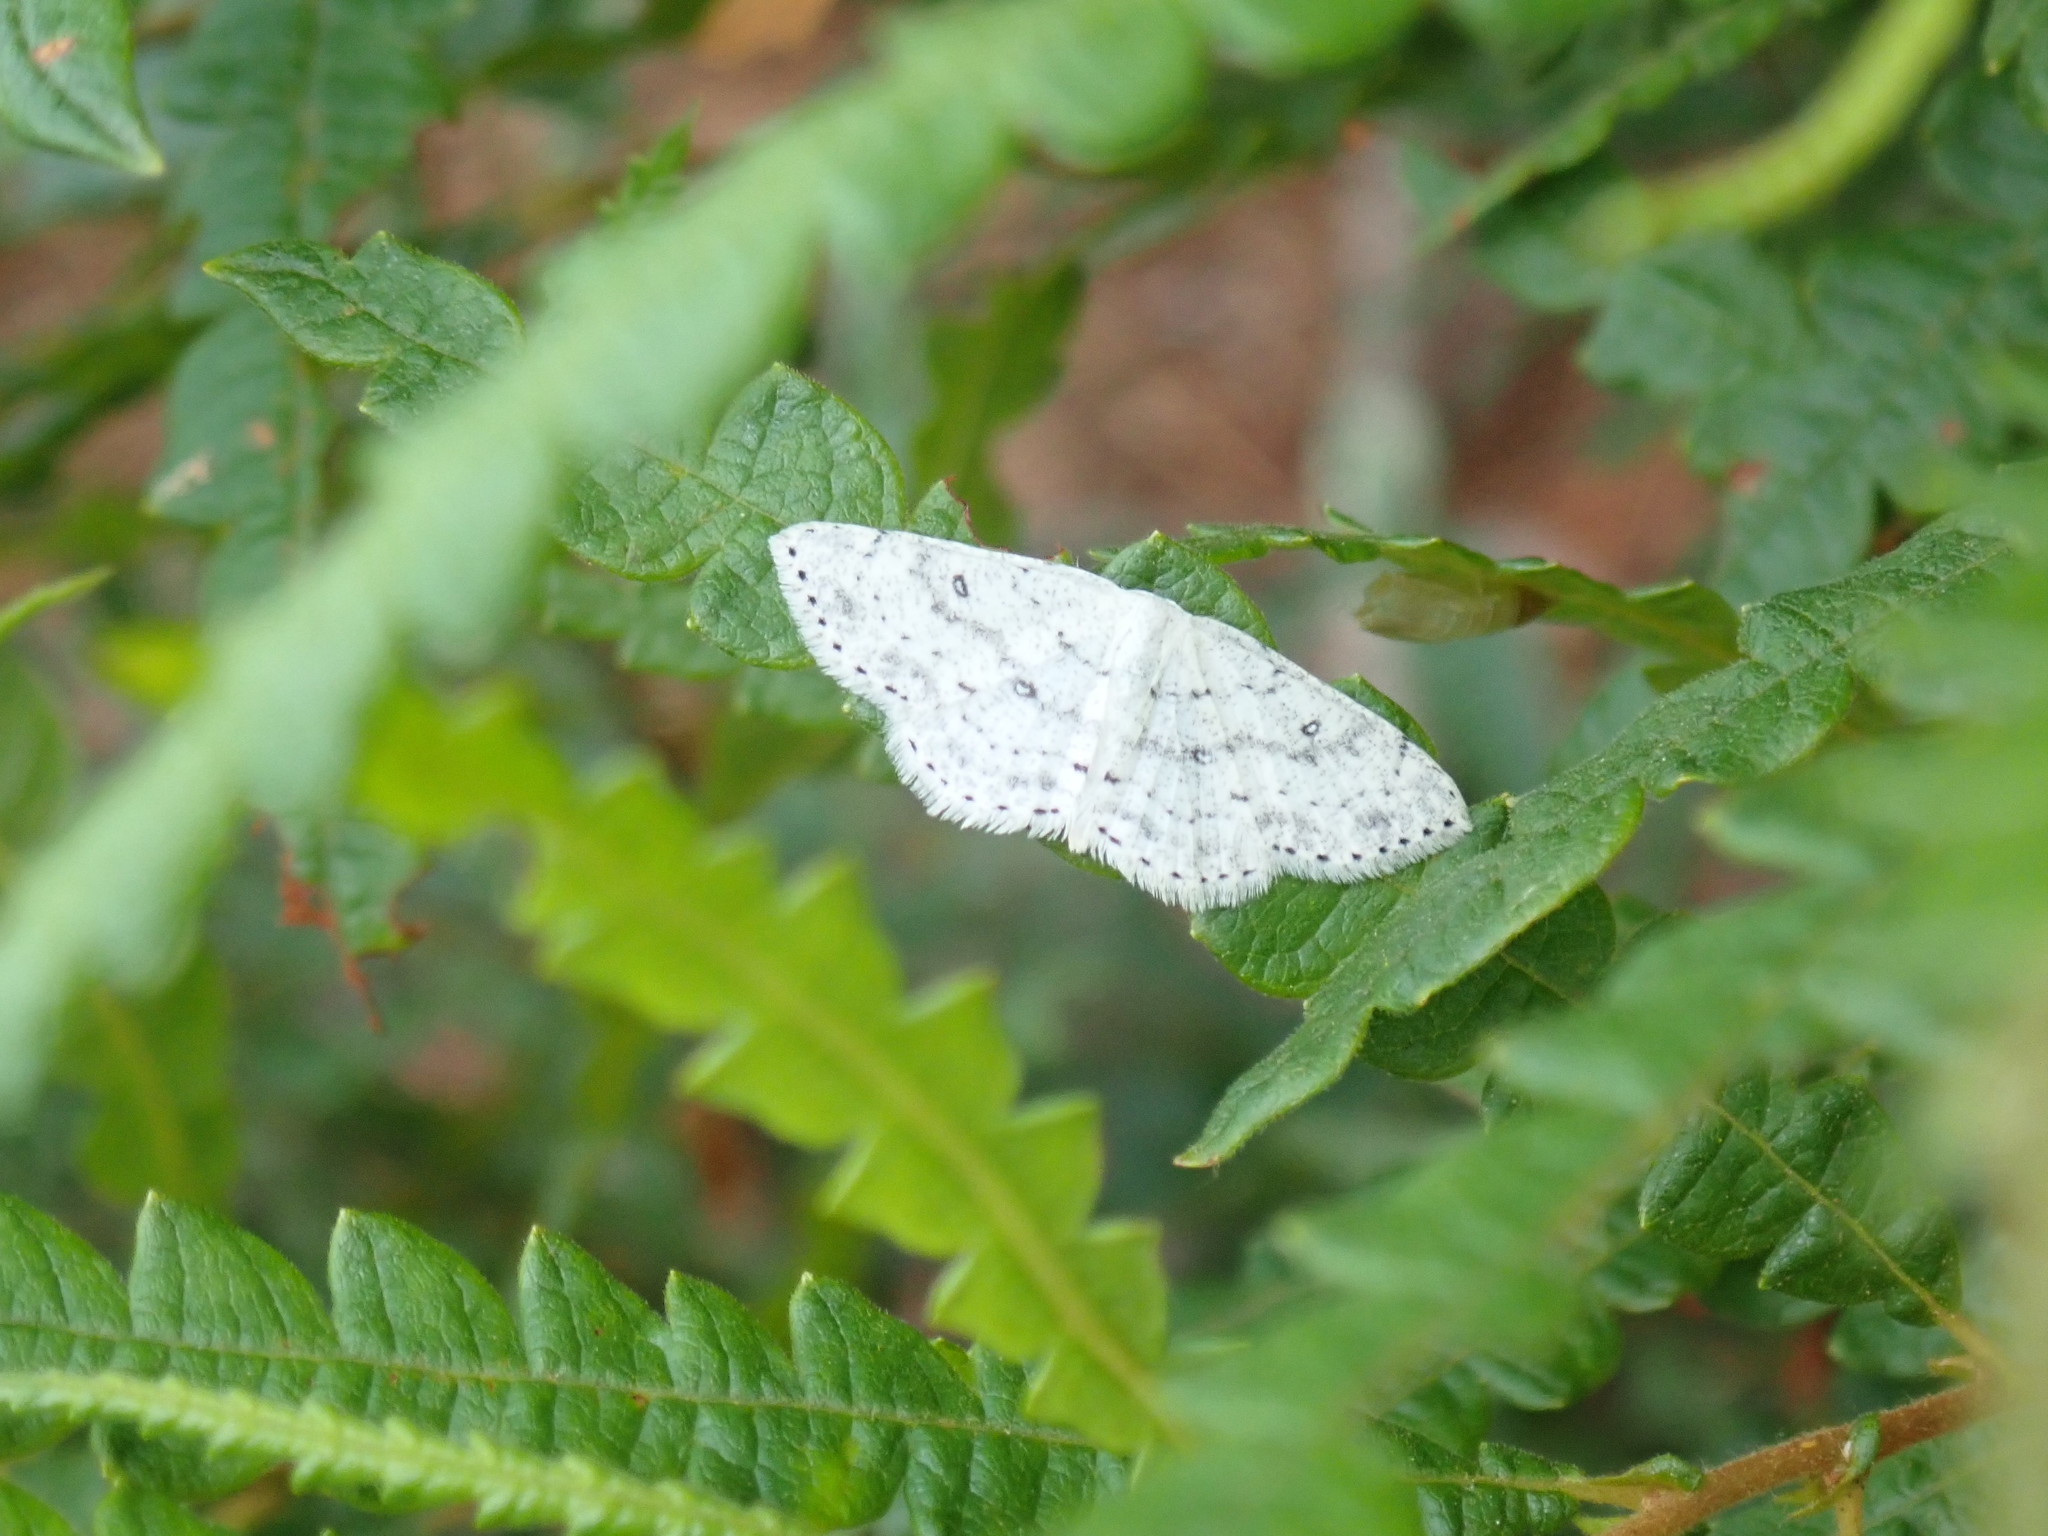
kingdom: Animalia
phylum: Arthropoda
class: Insecta
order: Lepidoptera
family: Geometridae
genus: Cyclophora
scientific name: Cyclophora pendulinaria
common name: Sweet fern geometer
